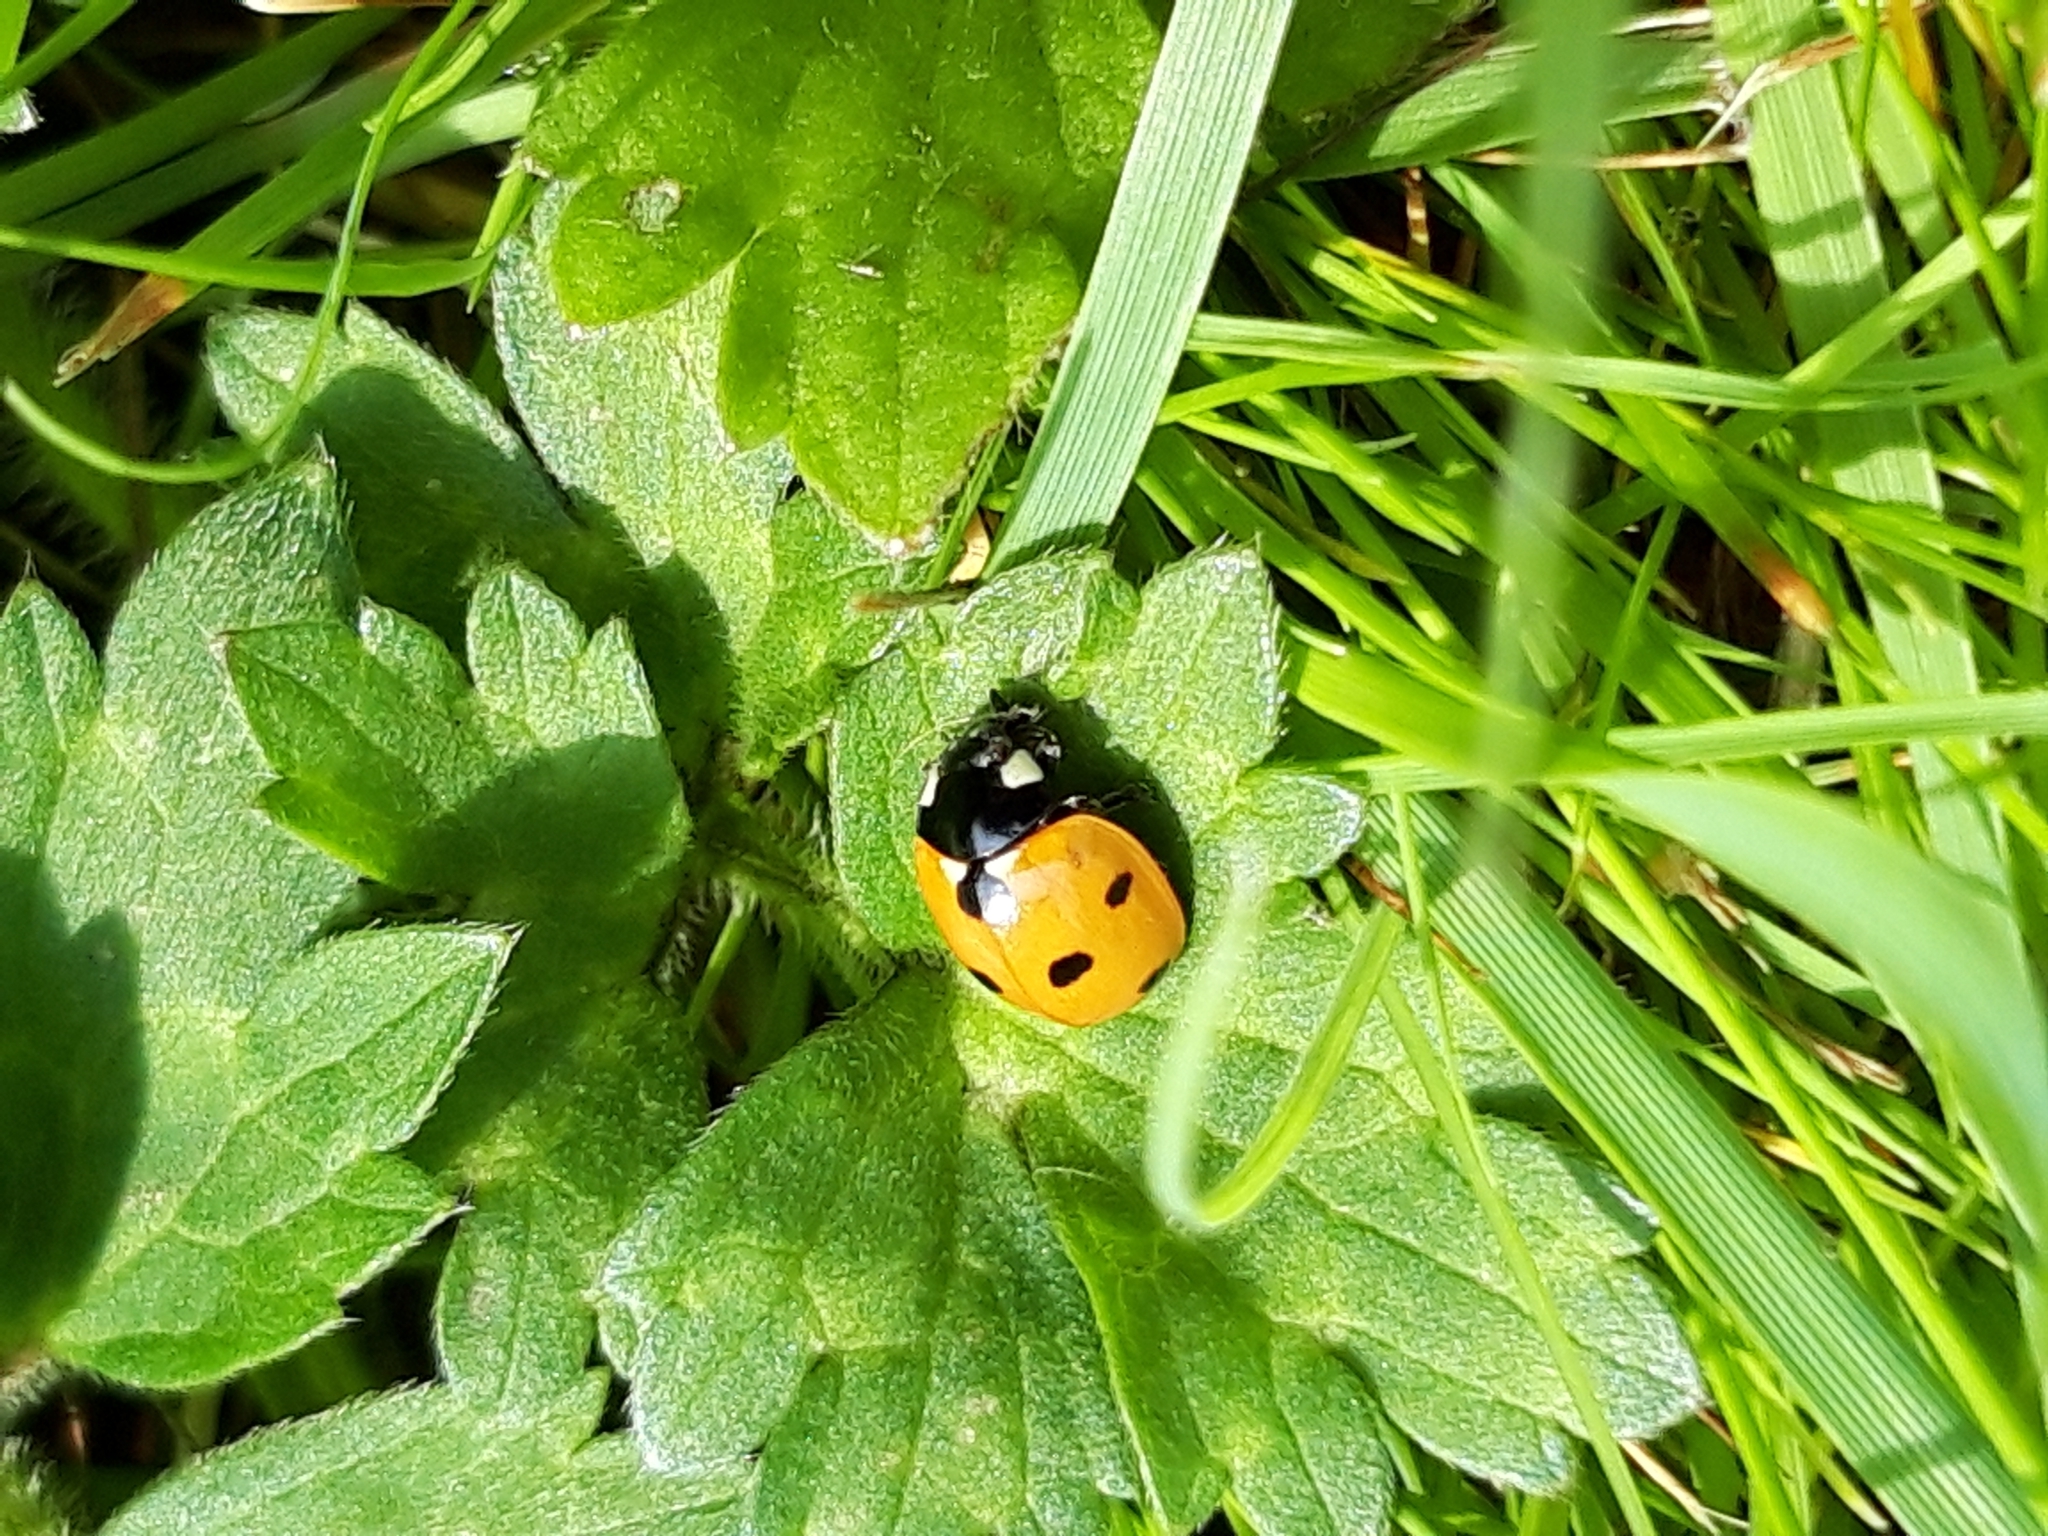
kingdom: Animalia
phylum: Arthropoda
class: Insecta
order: Coleoptera
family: Coccinellidae
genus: Coccinella
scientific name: Coccinella septempunctata
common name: Sevenspotted lady beetle
